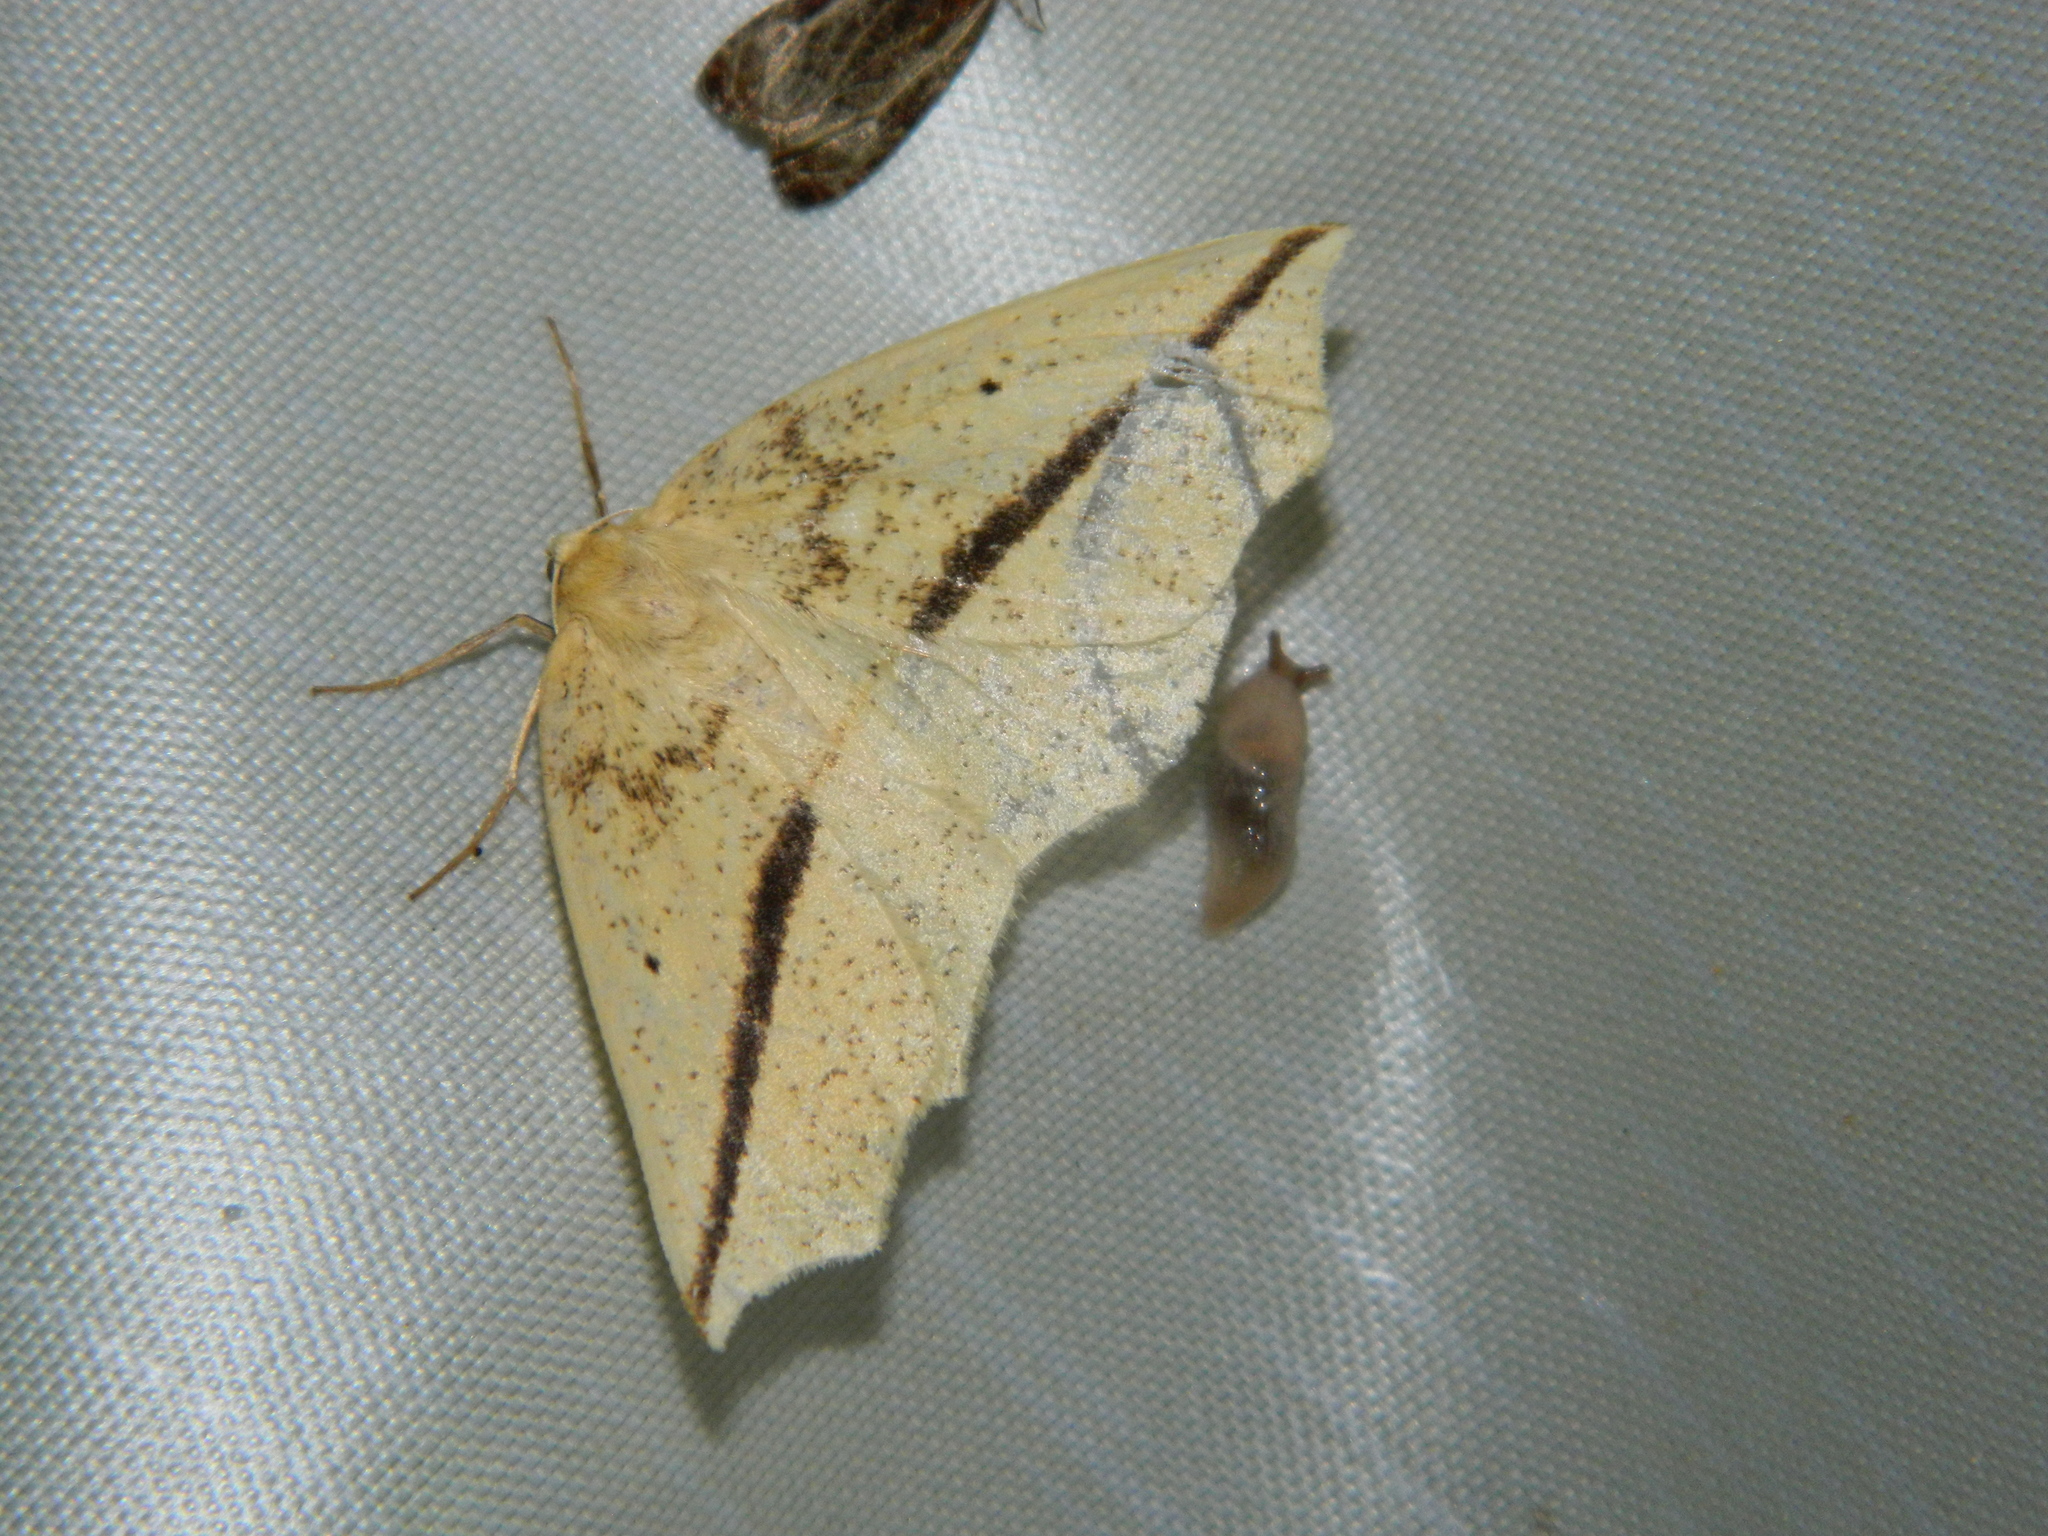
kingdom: Animalia
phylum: Arthropoda
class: Insecta
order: Lepidoptera
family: Geometridae
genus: Tetracis
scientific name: Tetracis crocallata
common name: Yellow slant-line
